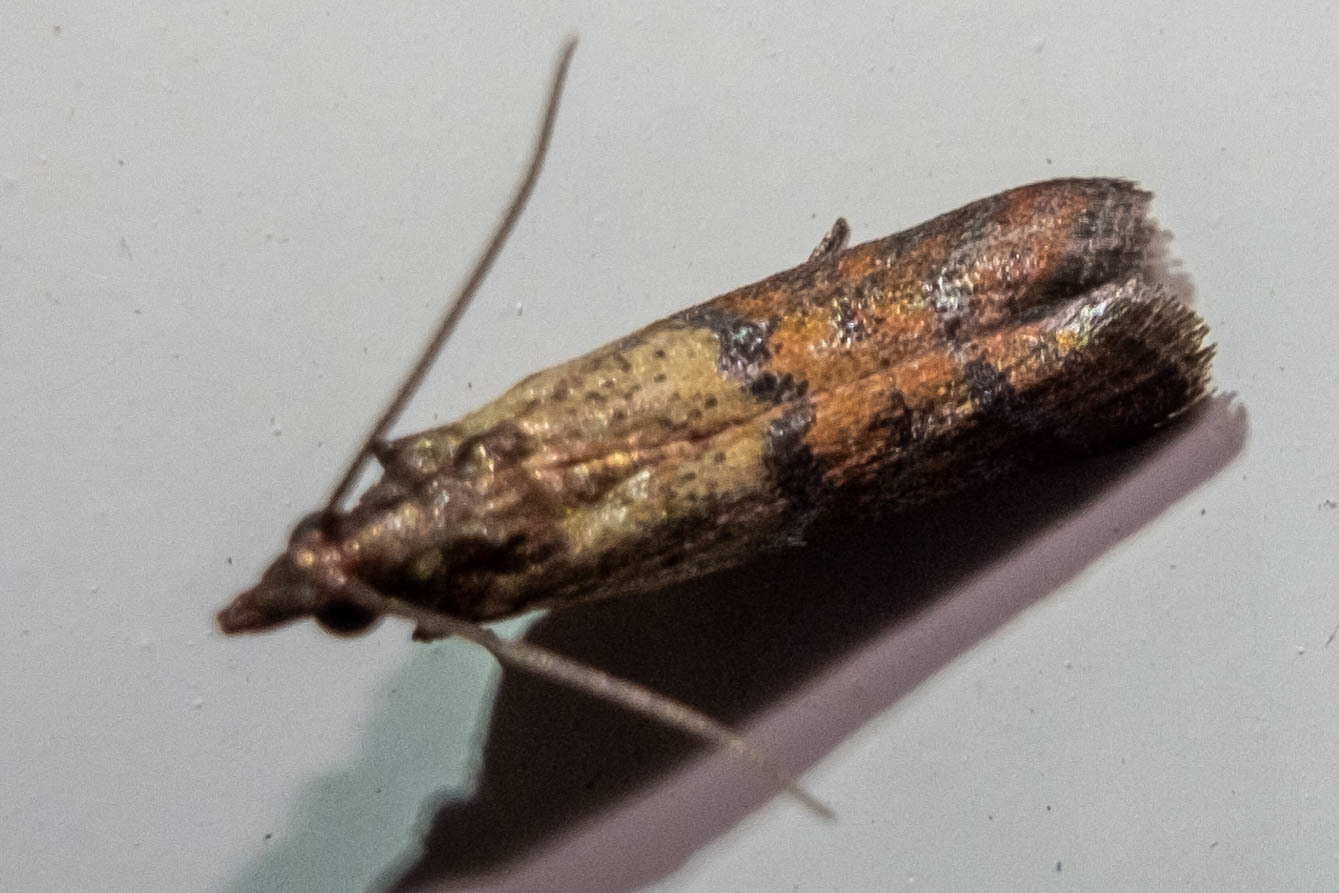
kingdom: Animalia
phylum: Arthropoda
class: Insecta
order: Lepidoptera
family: Pyralidae
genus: Plodia
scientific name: Plodia interpunctella
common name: Indian meal moth
